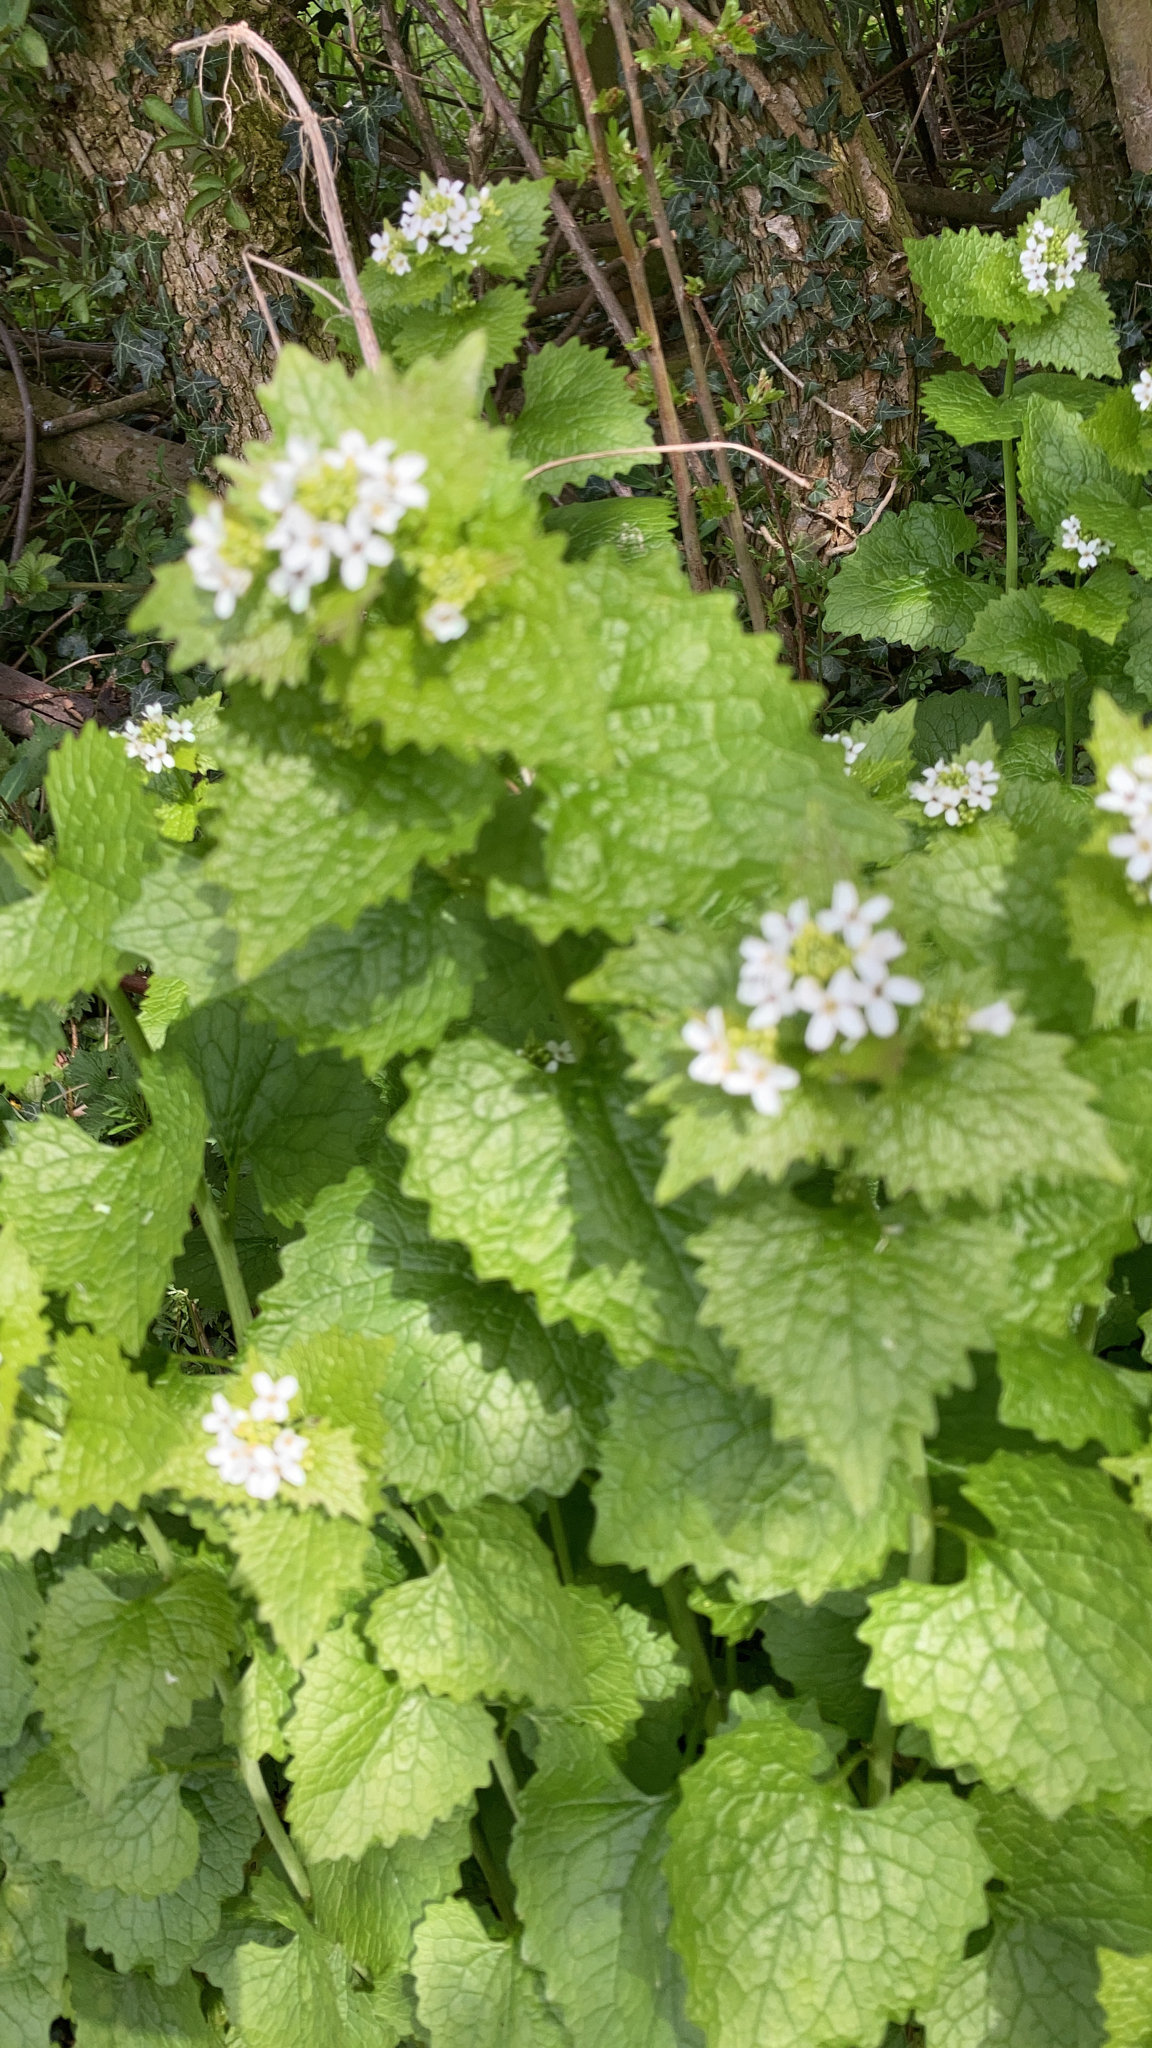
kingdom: Plantae
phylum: Tracheophyta
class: Magnoliopsida
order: Brassicales
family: Brassicaceae
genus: Alliaria
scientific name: Alliaria petiolata
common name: Garlic mustard
